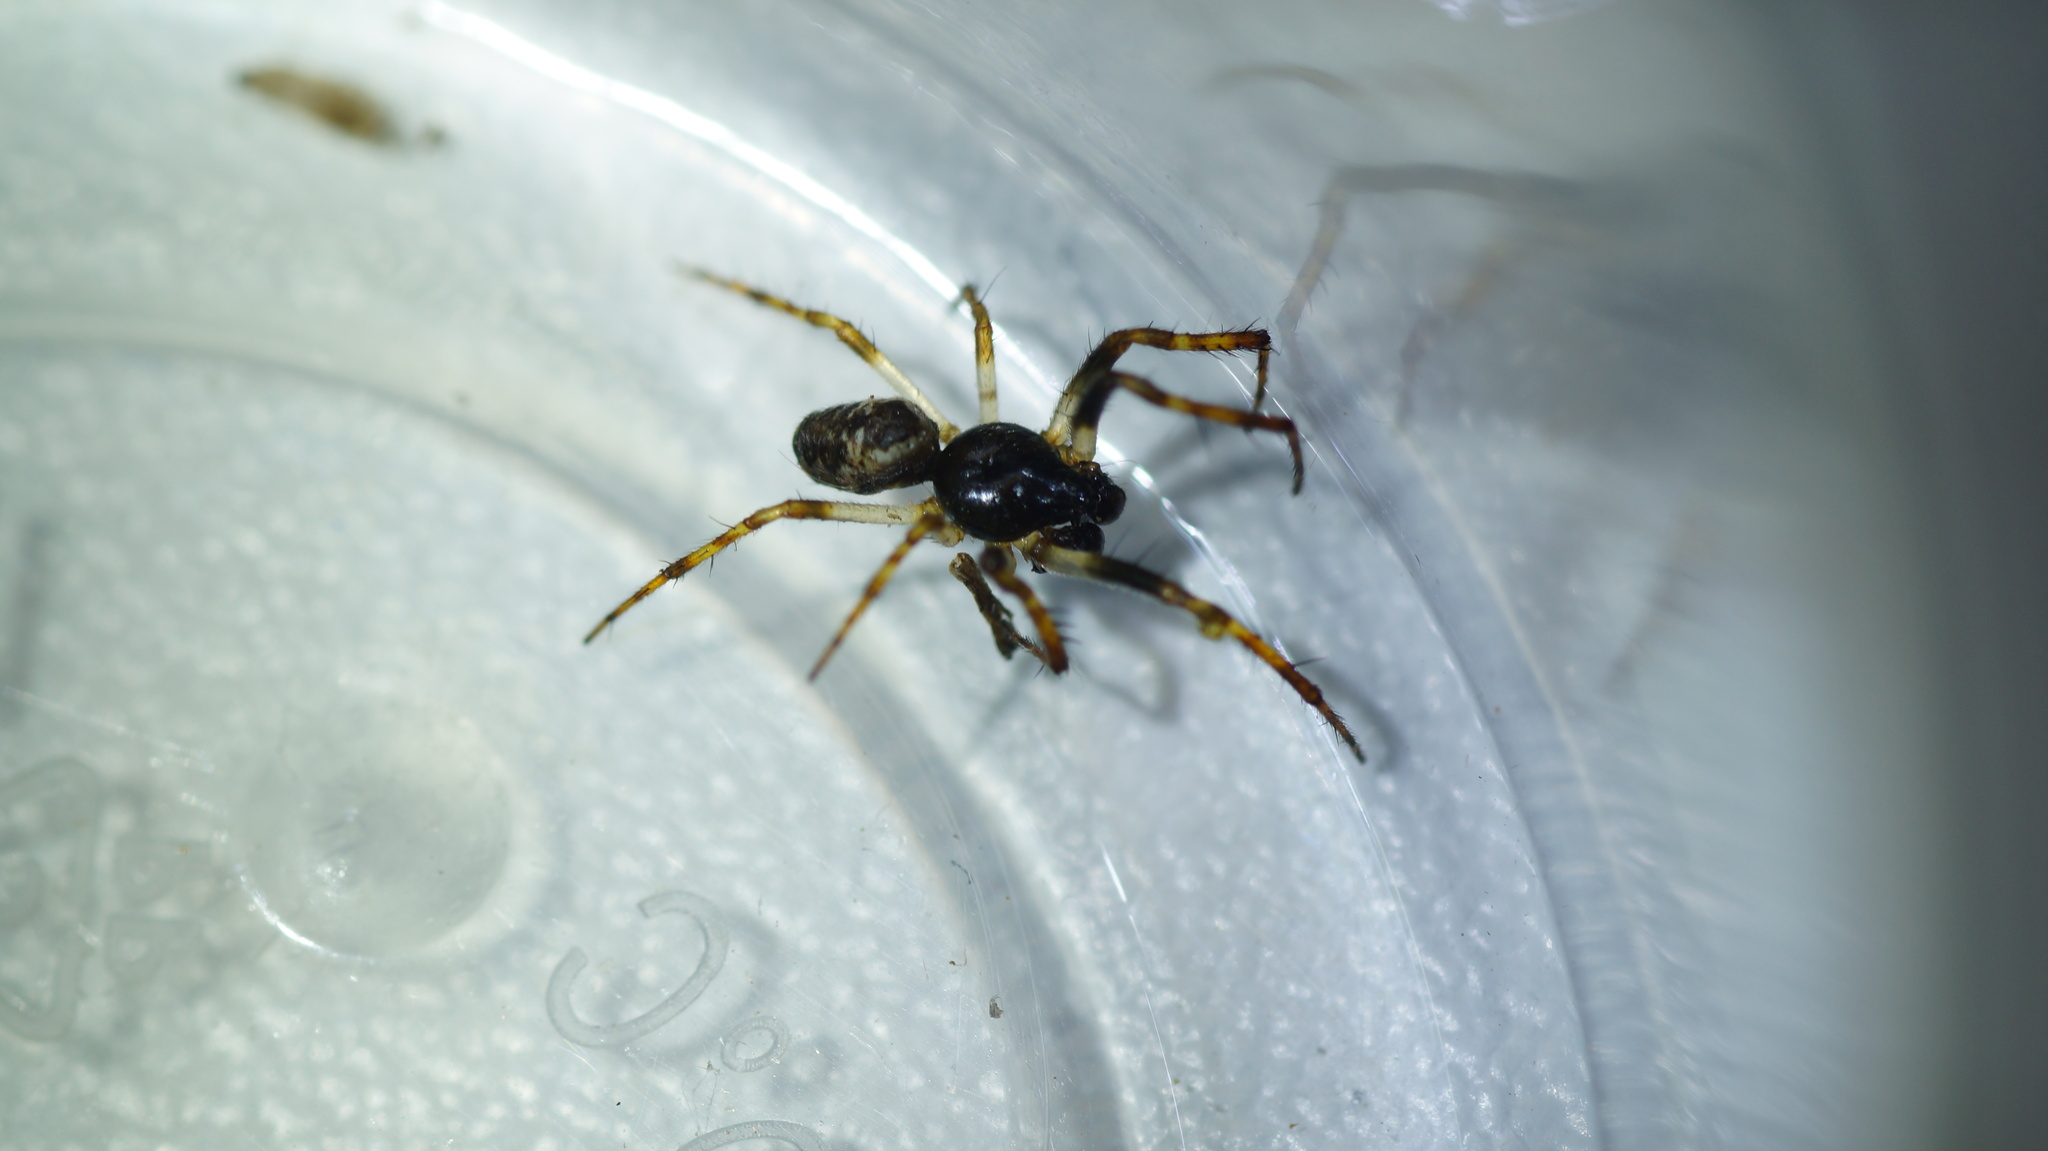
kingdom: Animalia
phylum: Arthropoda
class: Arachnida
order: Araneae
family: Araneidae
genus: Cyclosa
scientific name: Cyclosa conica
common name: Conical trashline orbweaver
